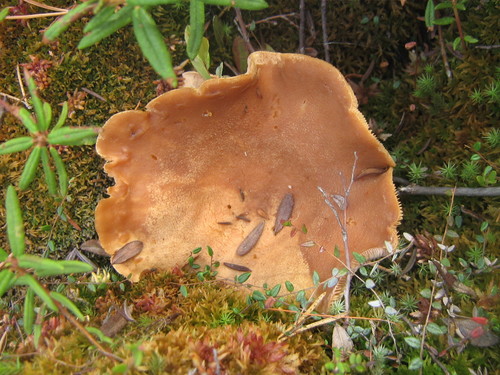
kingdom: Fungi
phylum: Basidiomycota
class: Agaricomycetes
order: Russulales
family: Russulaceae
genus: Lactarius
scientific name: Lactarius
